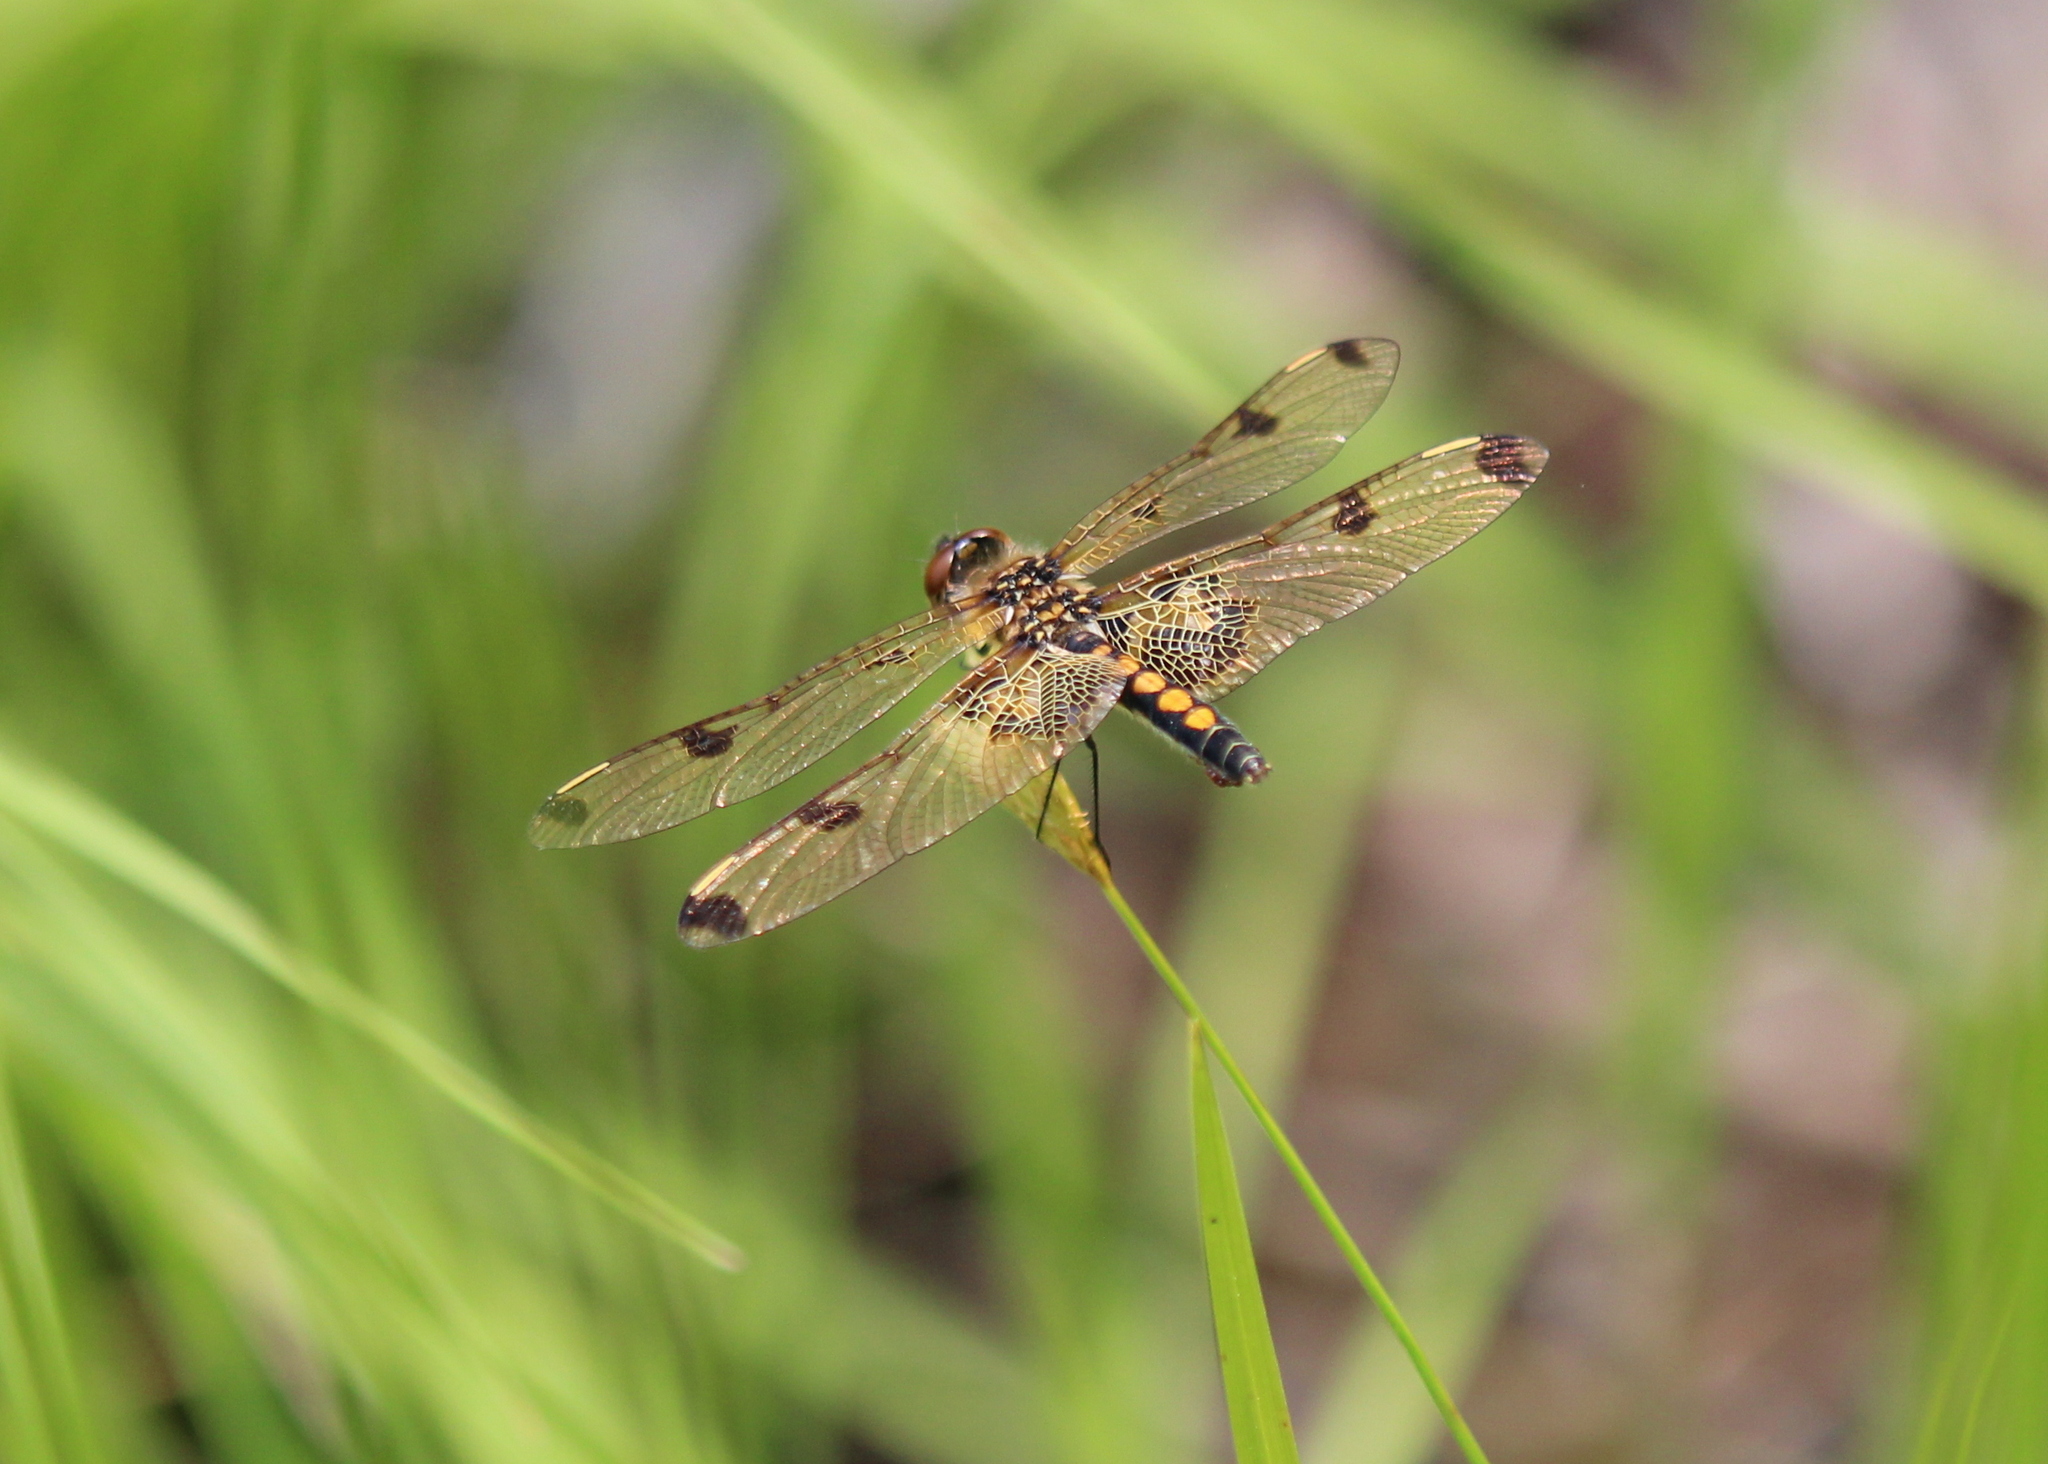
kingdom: Animalia
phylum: Arthropoda
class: Insecta
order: Odonata
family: Libellulidae
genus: Celithemis
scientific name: Celithemis elisa
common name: Calico pennant
